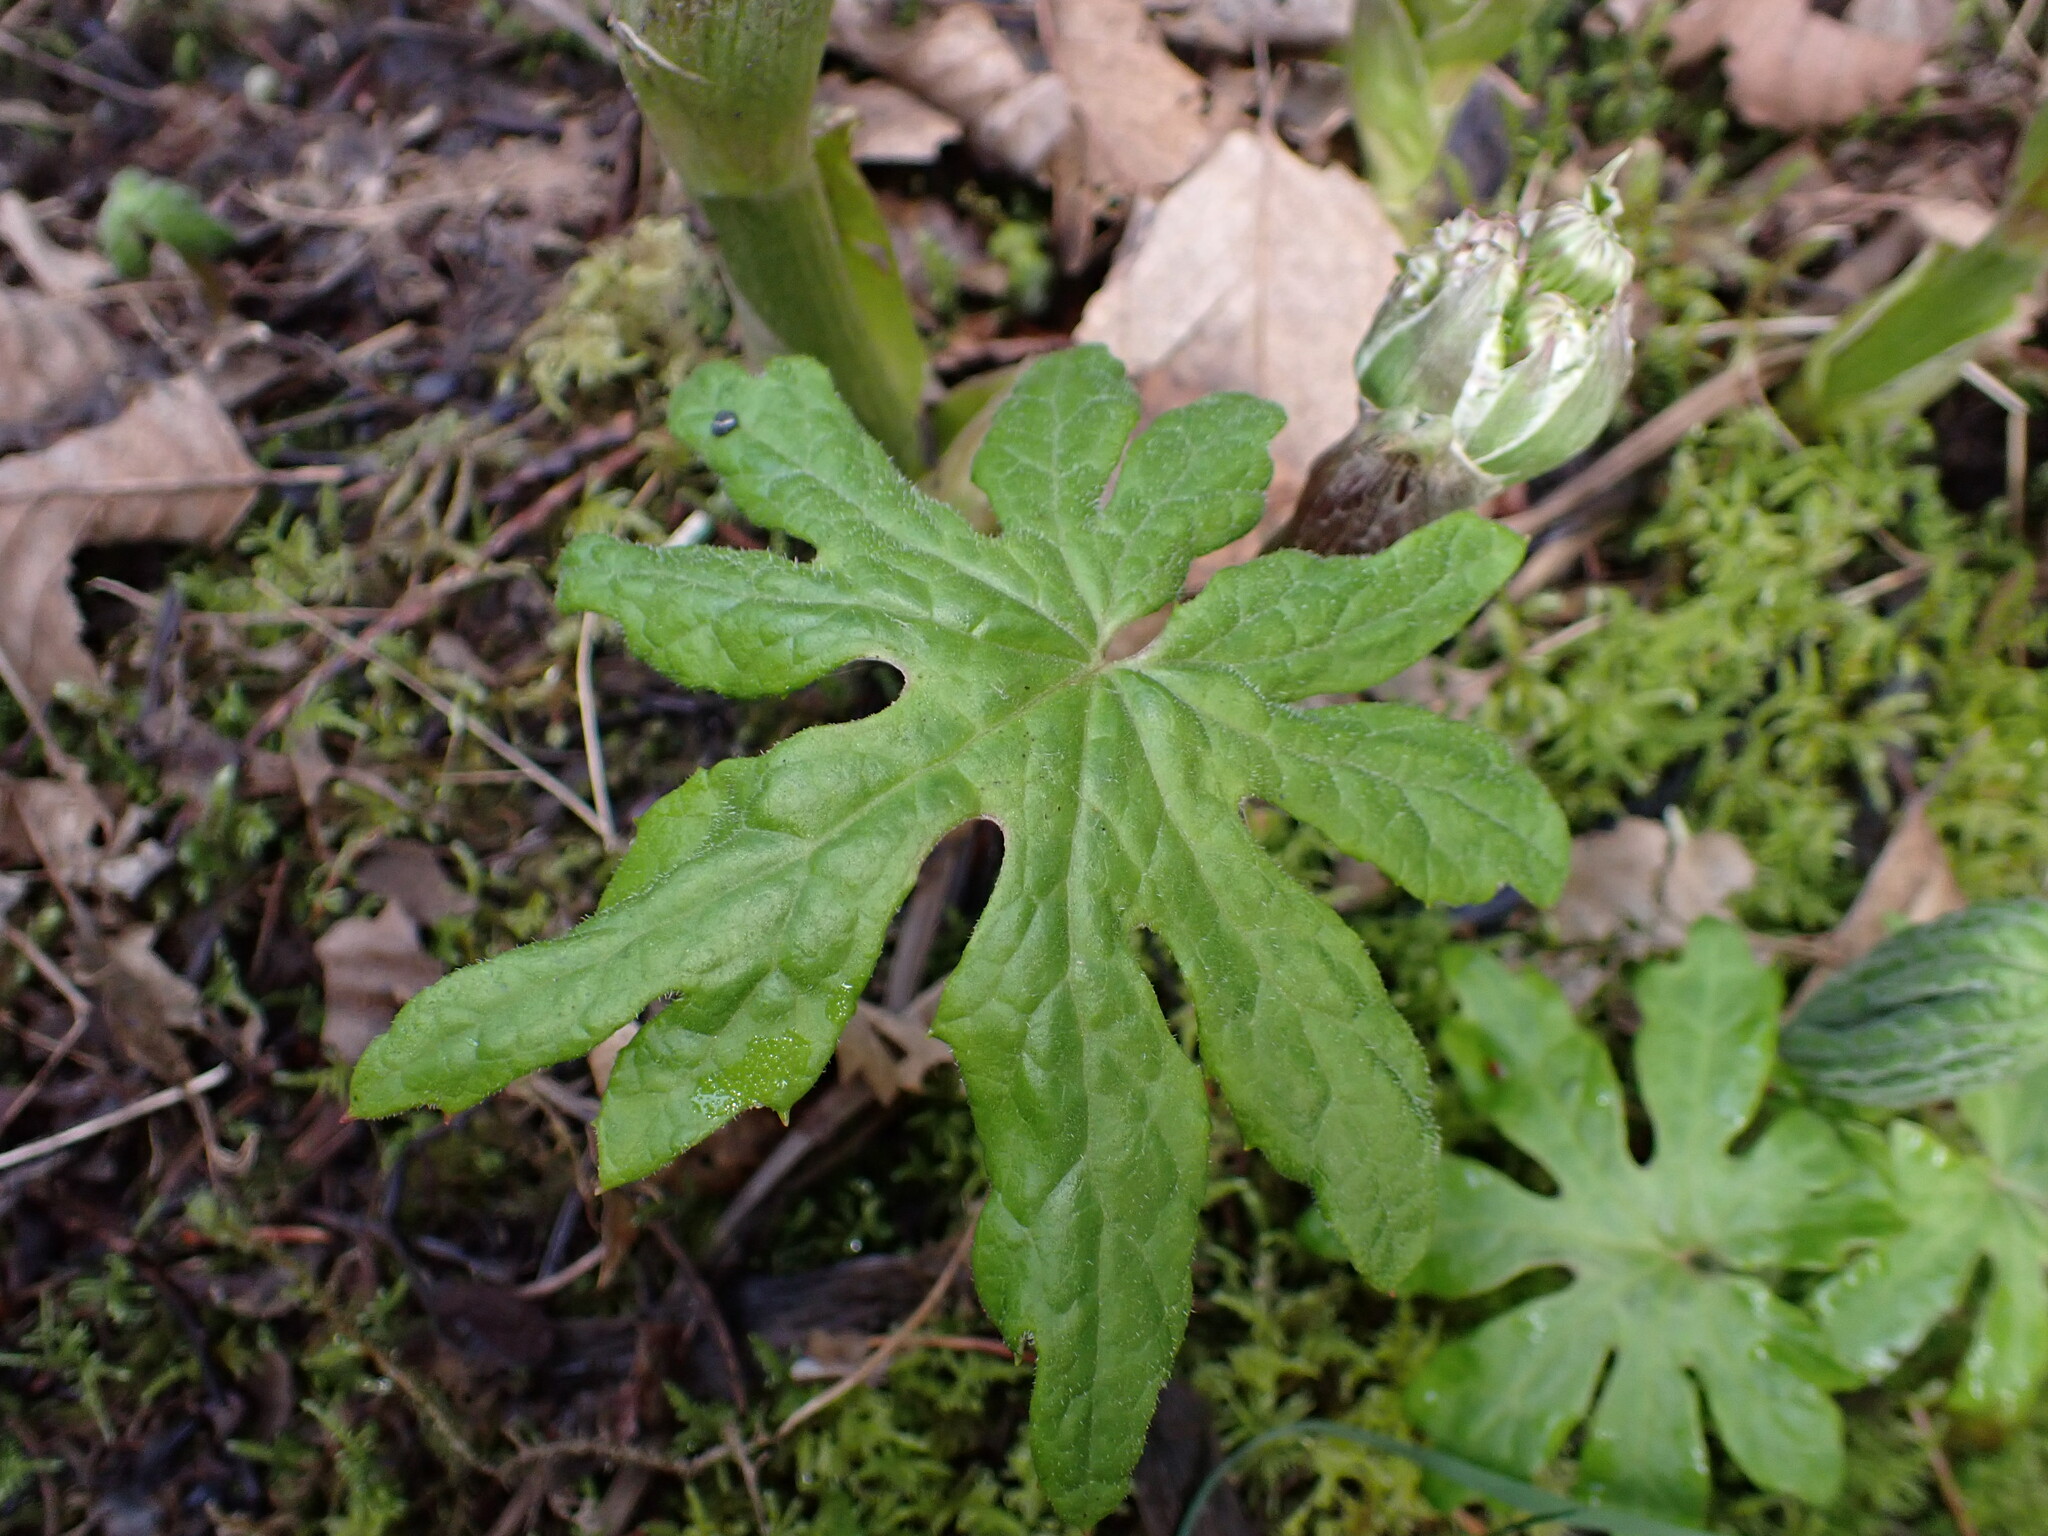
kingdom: Plantae
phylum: Tracheophyta
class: Magnoliopsida
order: Asterales
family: Asteraceae
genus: Petasites
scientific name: Petasites frigidus
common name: Arctic butterbur
